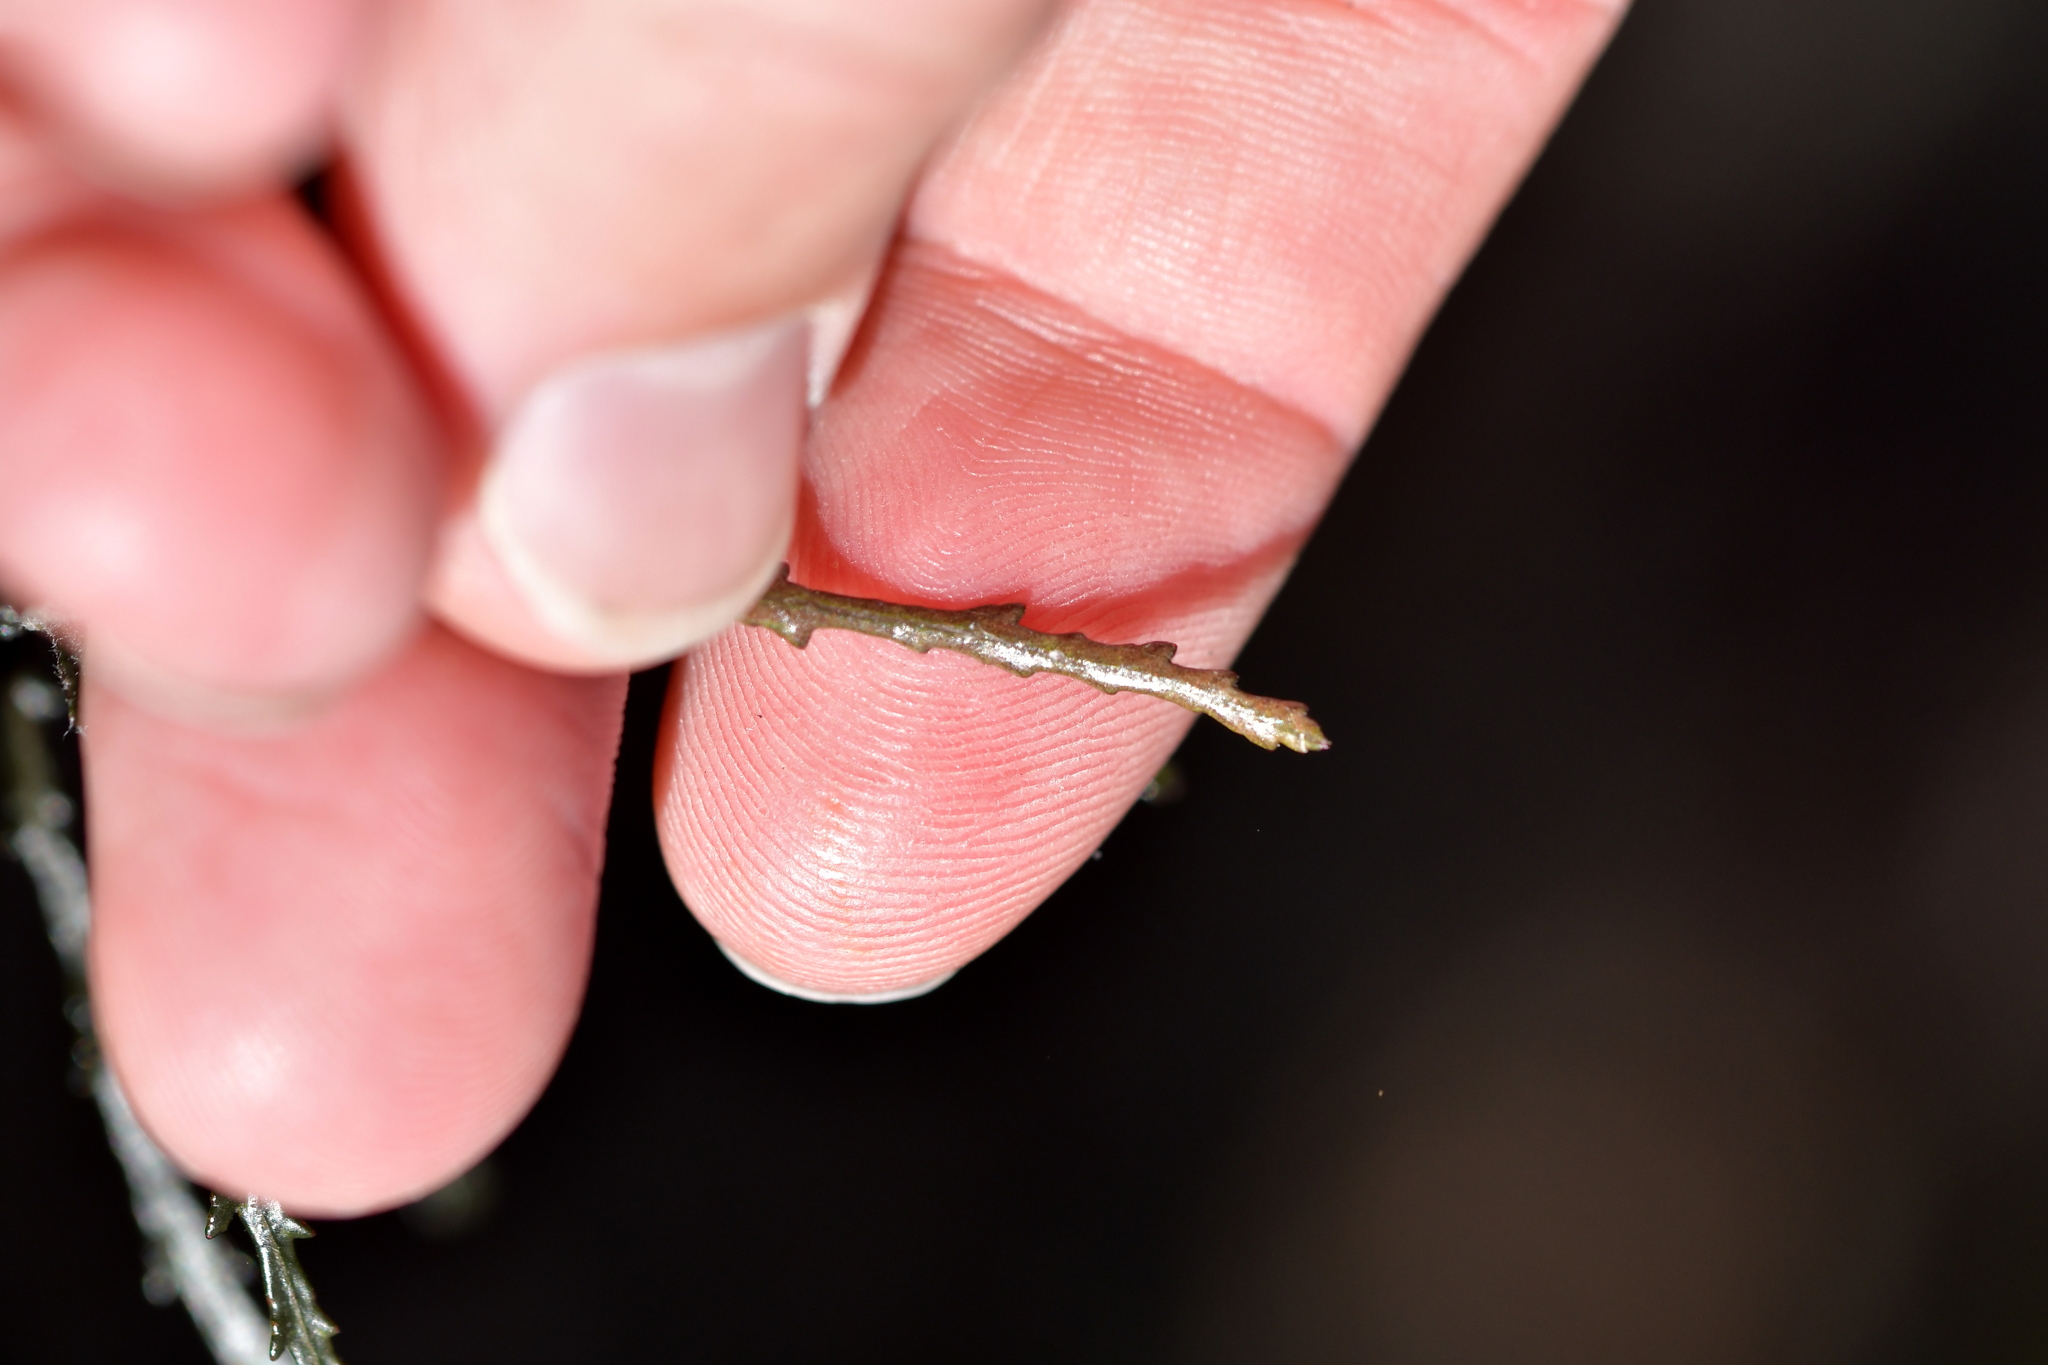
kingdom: Plantae
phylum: Tracheophyta
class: Magnoliopsida
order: Apiales
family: Pittosporaceae
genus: Pittosporum
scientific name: Pittosporum patulum
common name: Pitpat
